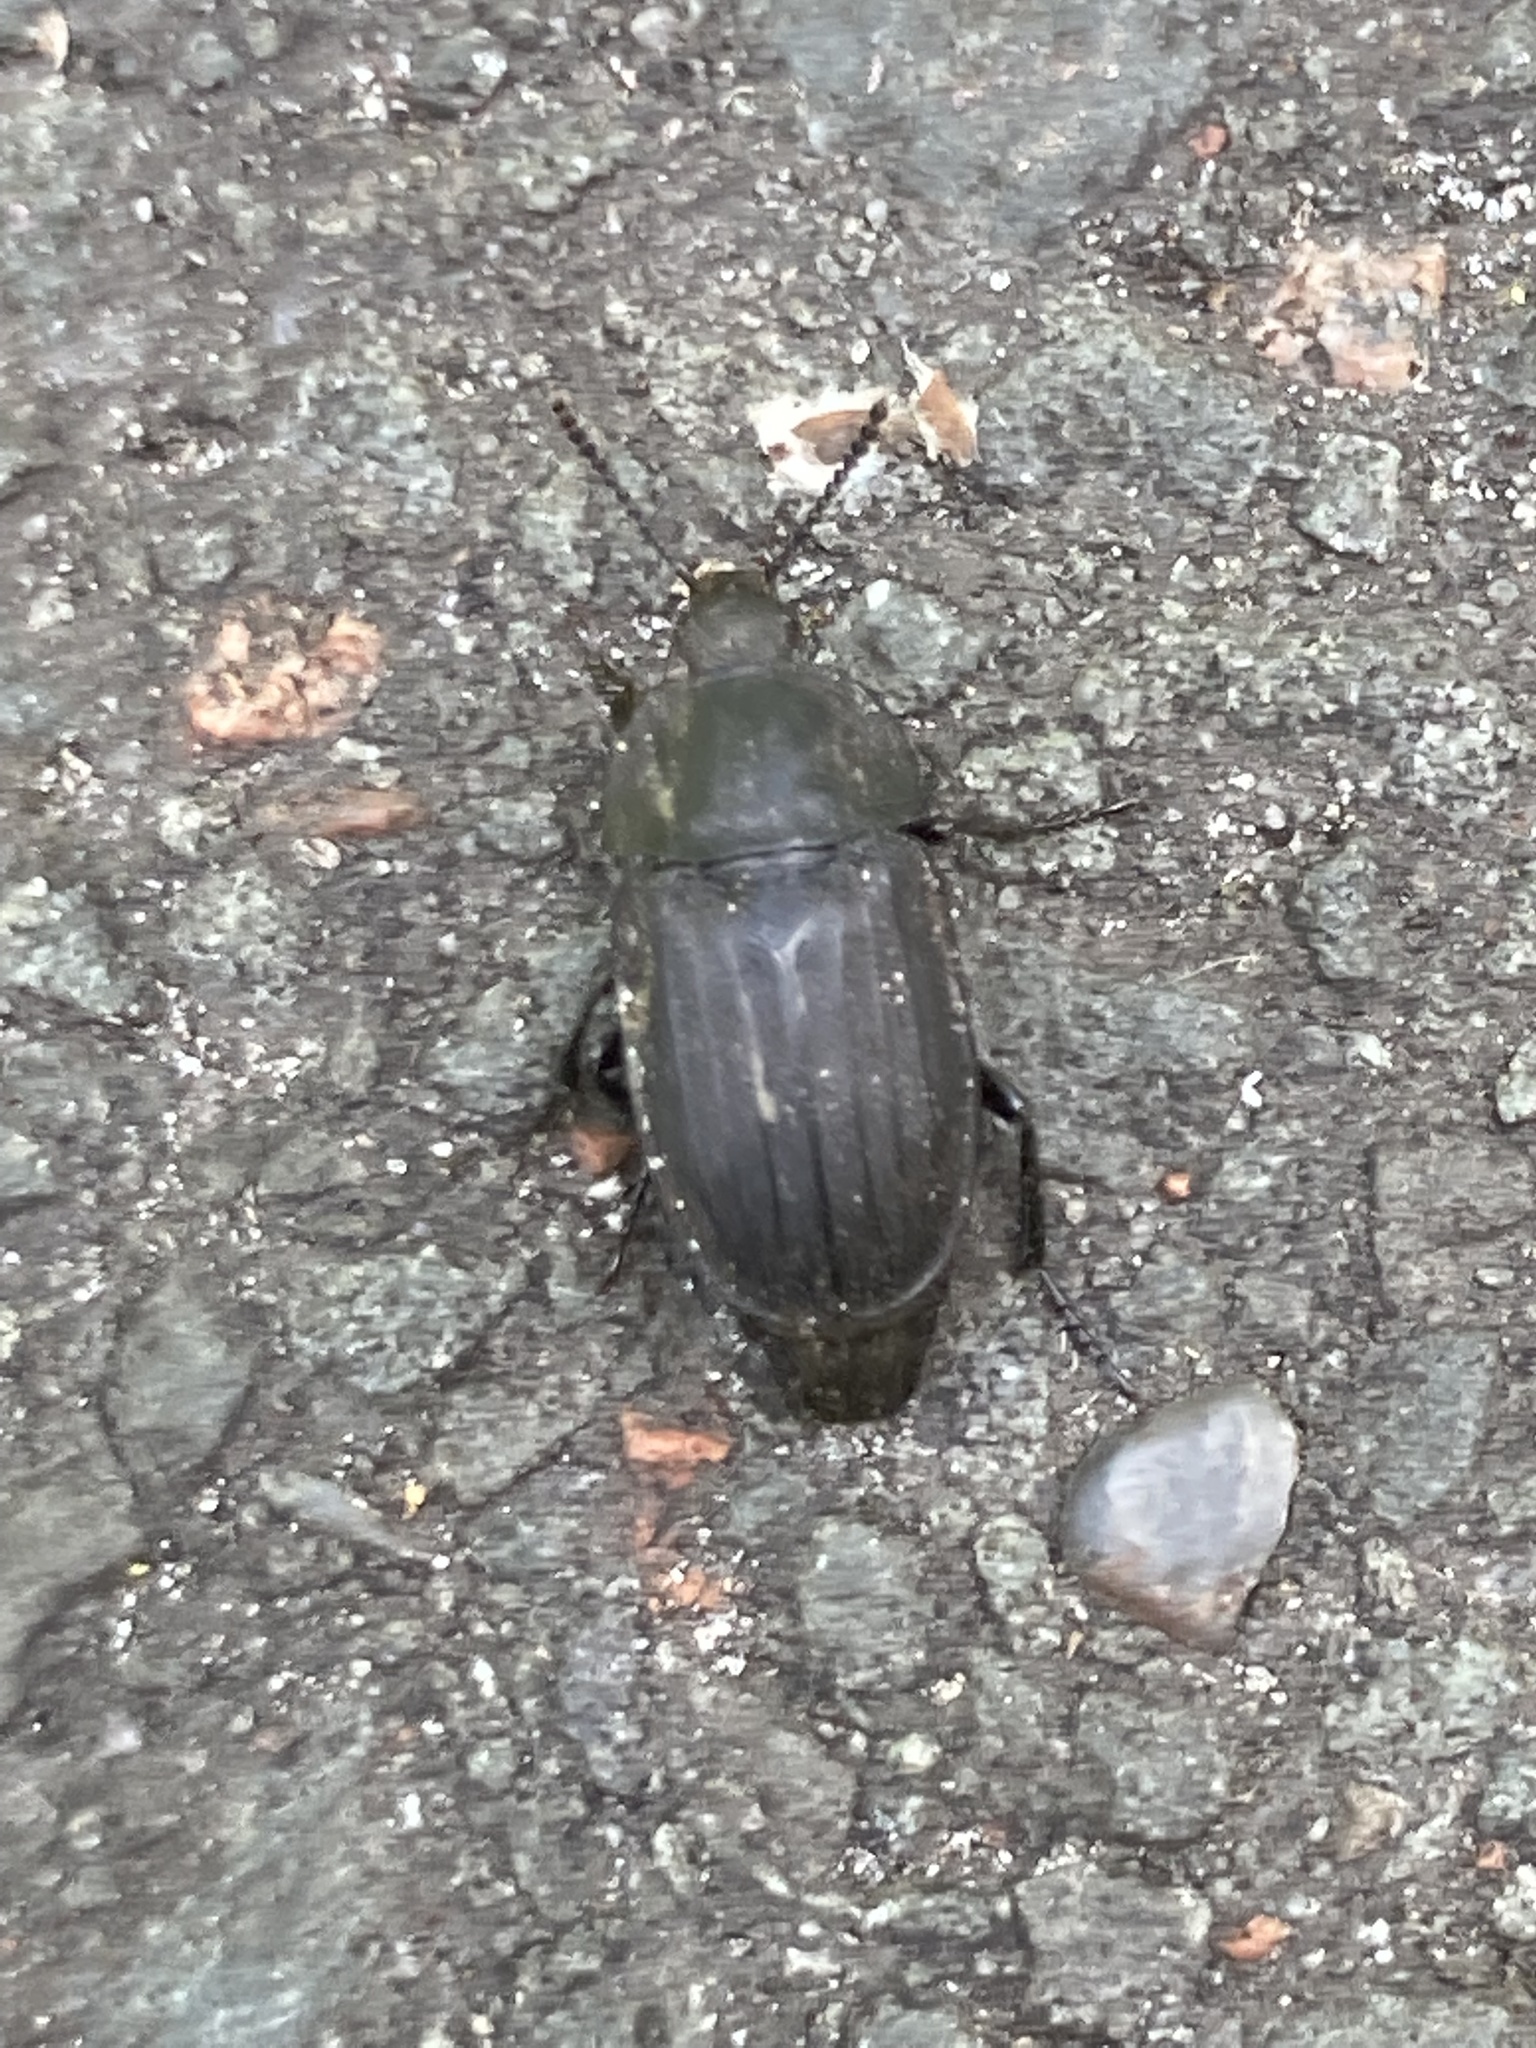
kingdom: Animalia
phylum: Arthropoda
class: Insecta
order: Coleoptera
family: Staphylinidae
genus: Silpha
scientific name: Silpha tristis
